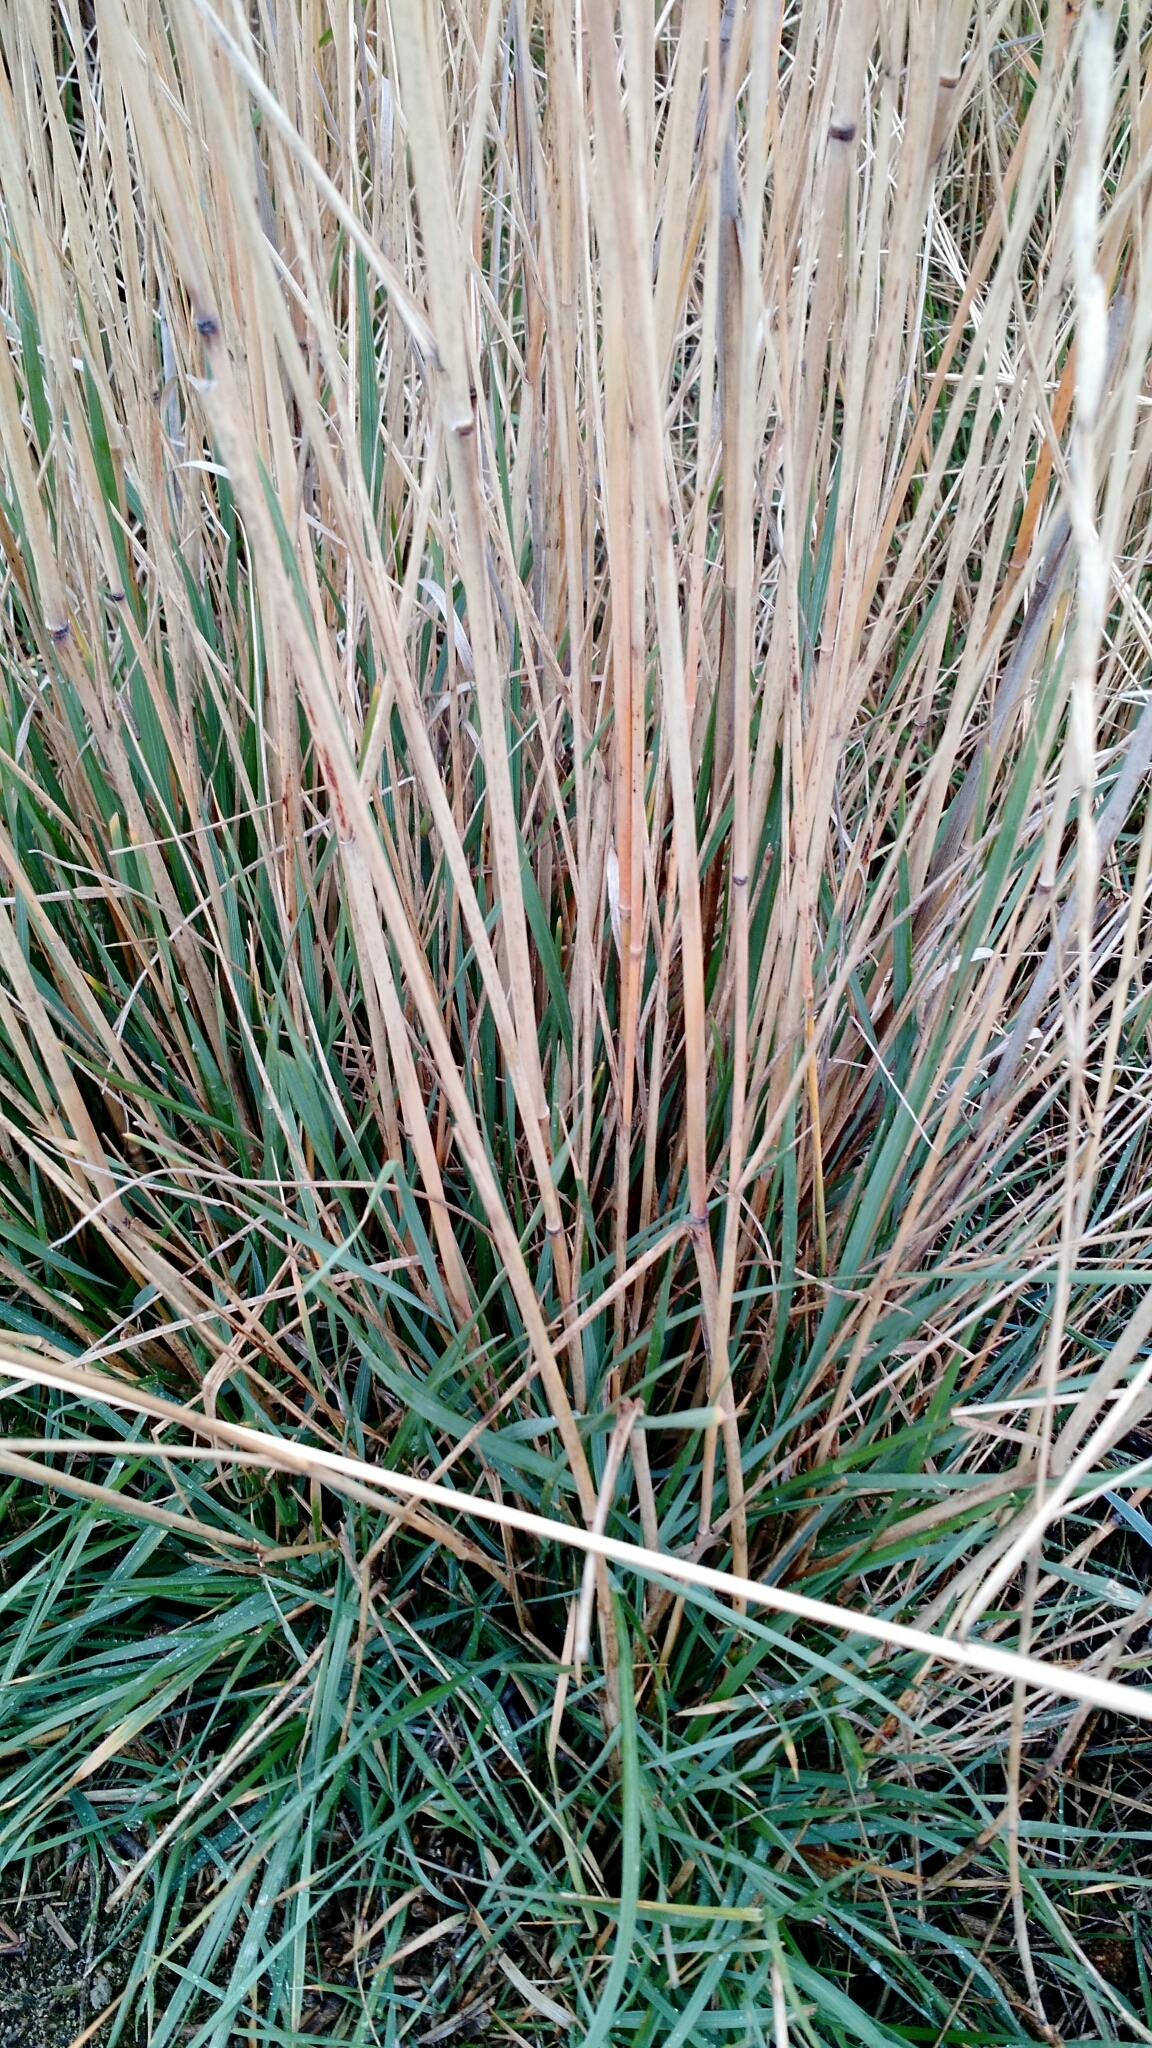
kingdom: Plantae
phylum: Tracheophyta
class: Liliopsida
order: Poales
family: Poaceae
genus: Thinopyrum
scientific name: Thinopyrum intermedium
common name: Intermediate wheatgrass
